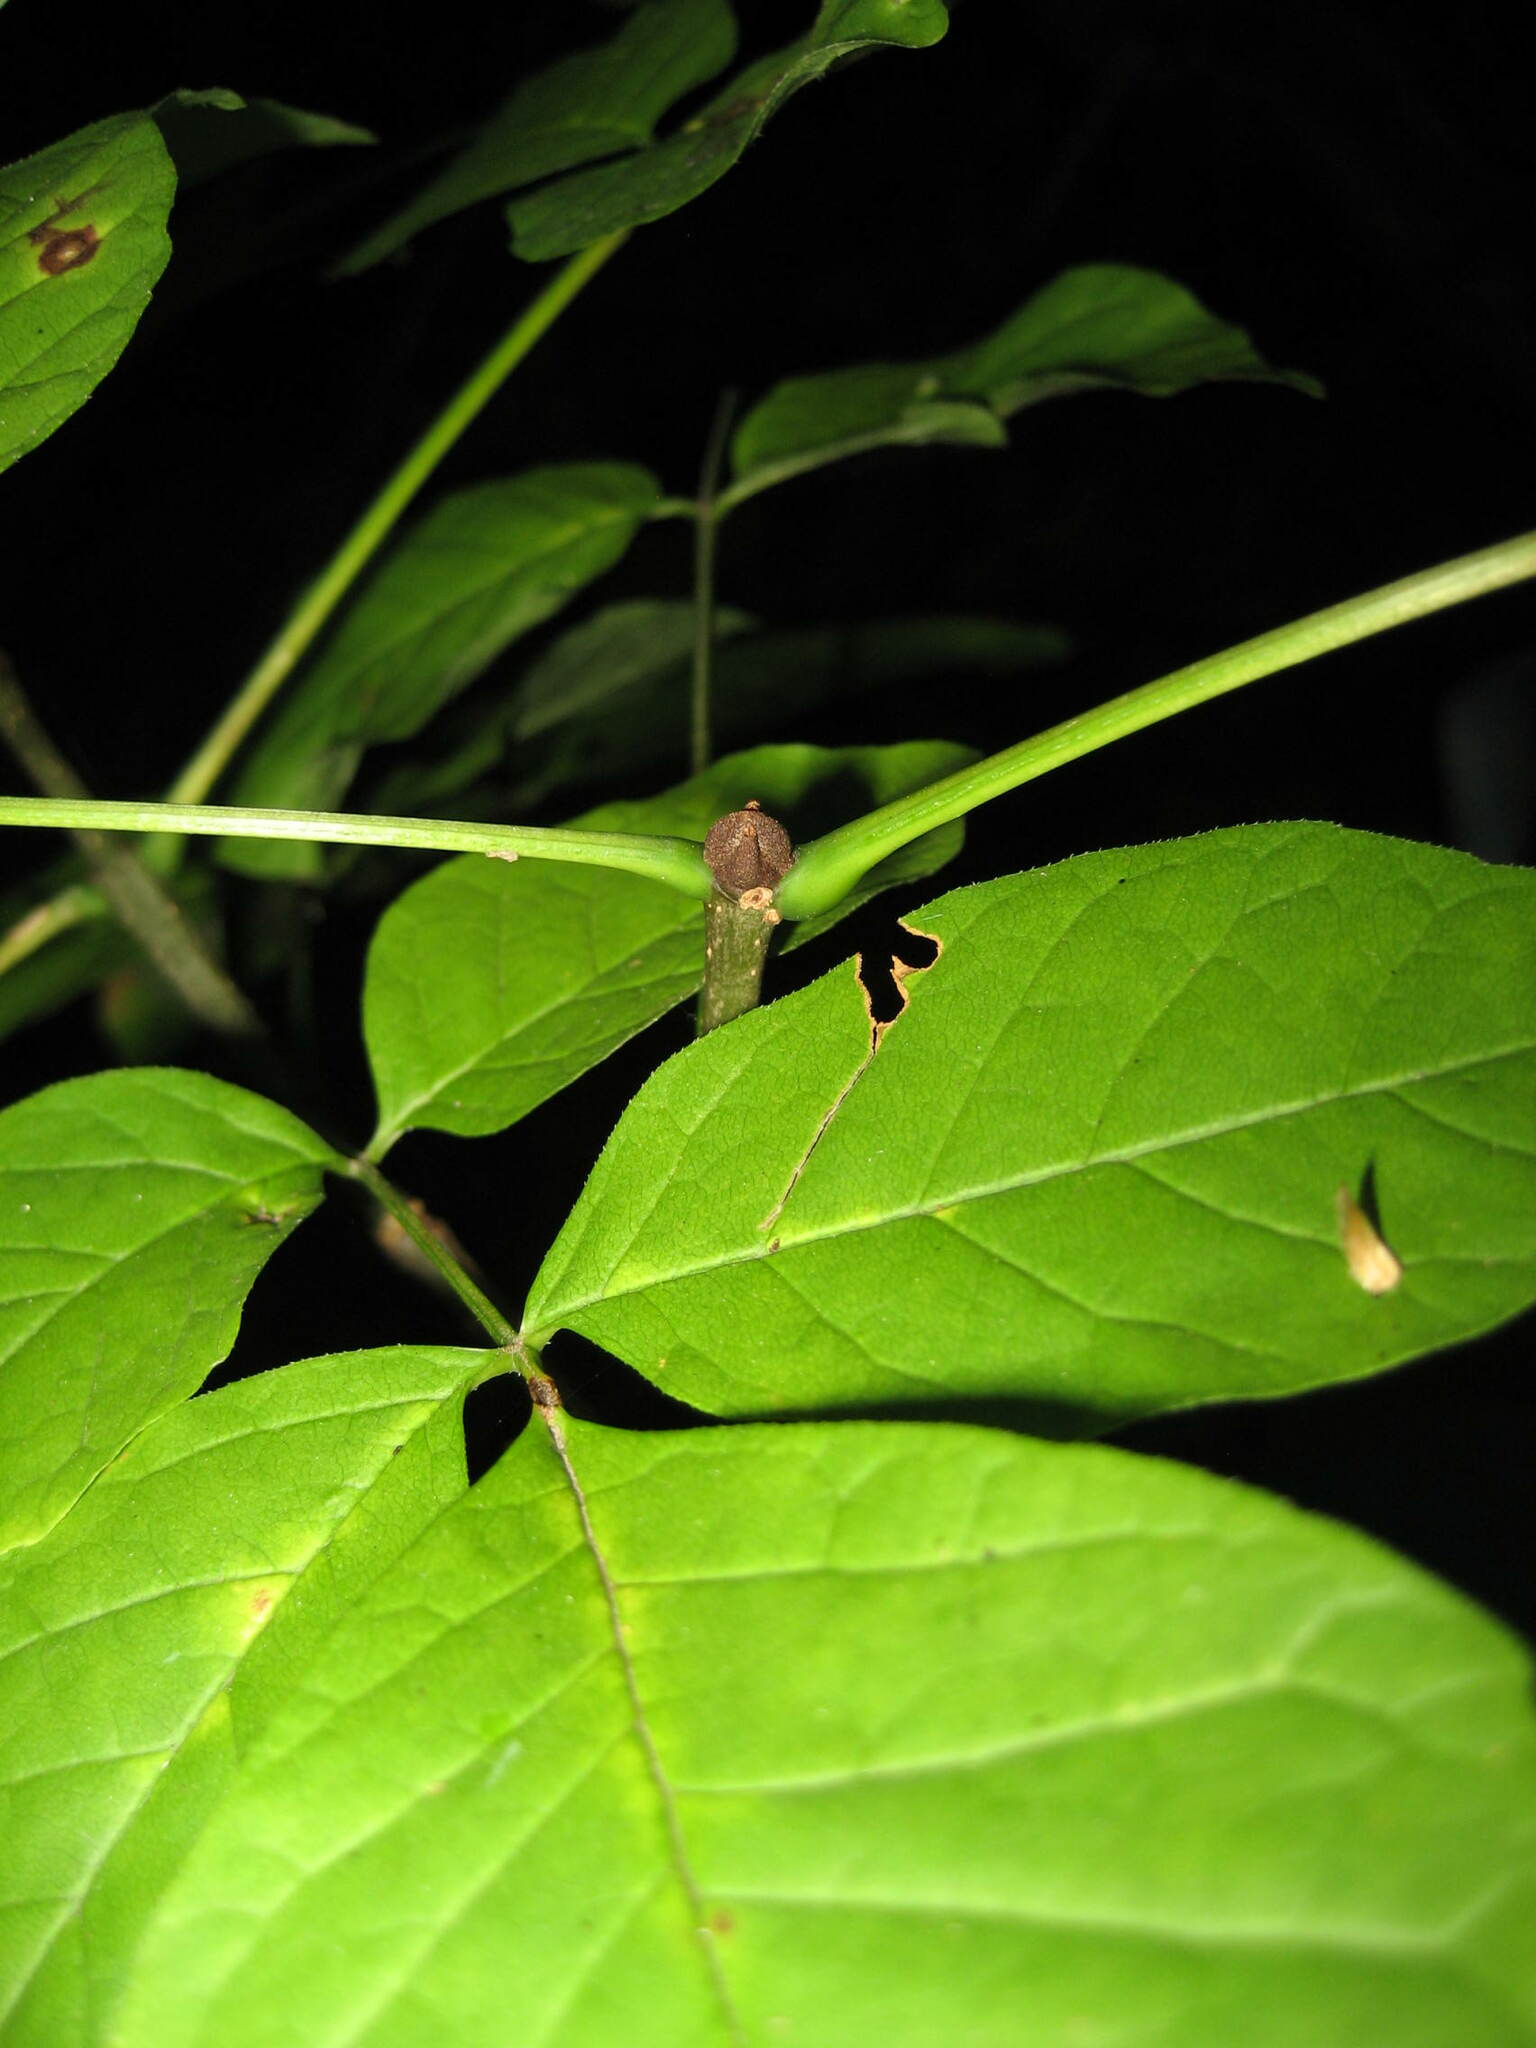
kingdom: Plantae
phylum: Tracheophyta
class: Magnoliopsida
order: Lamiales
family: Oleaceae
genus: Fraxinus
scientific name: Fraxinus americana
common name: White ash
